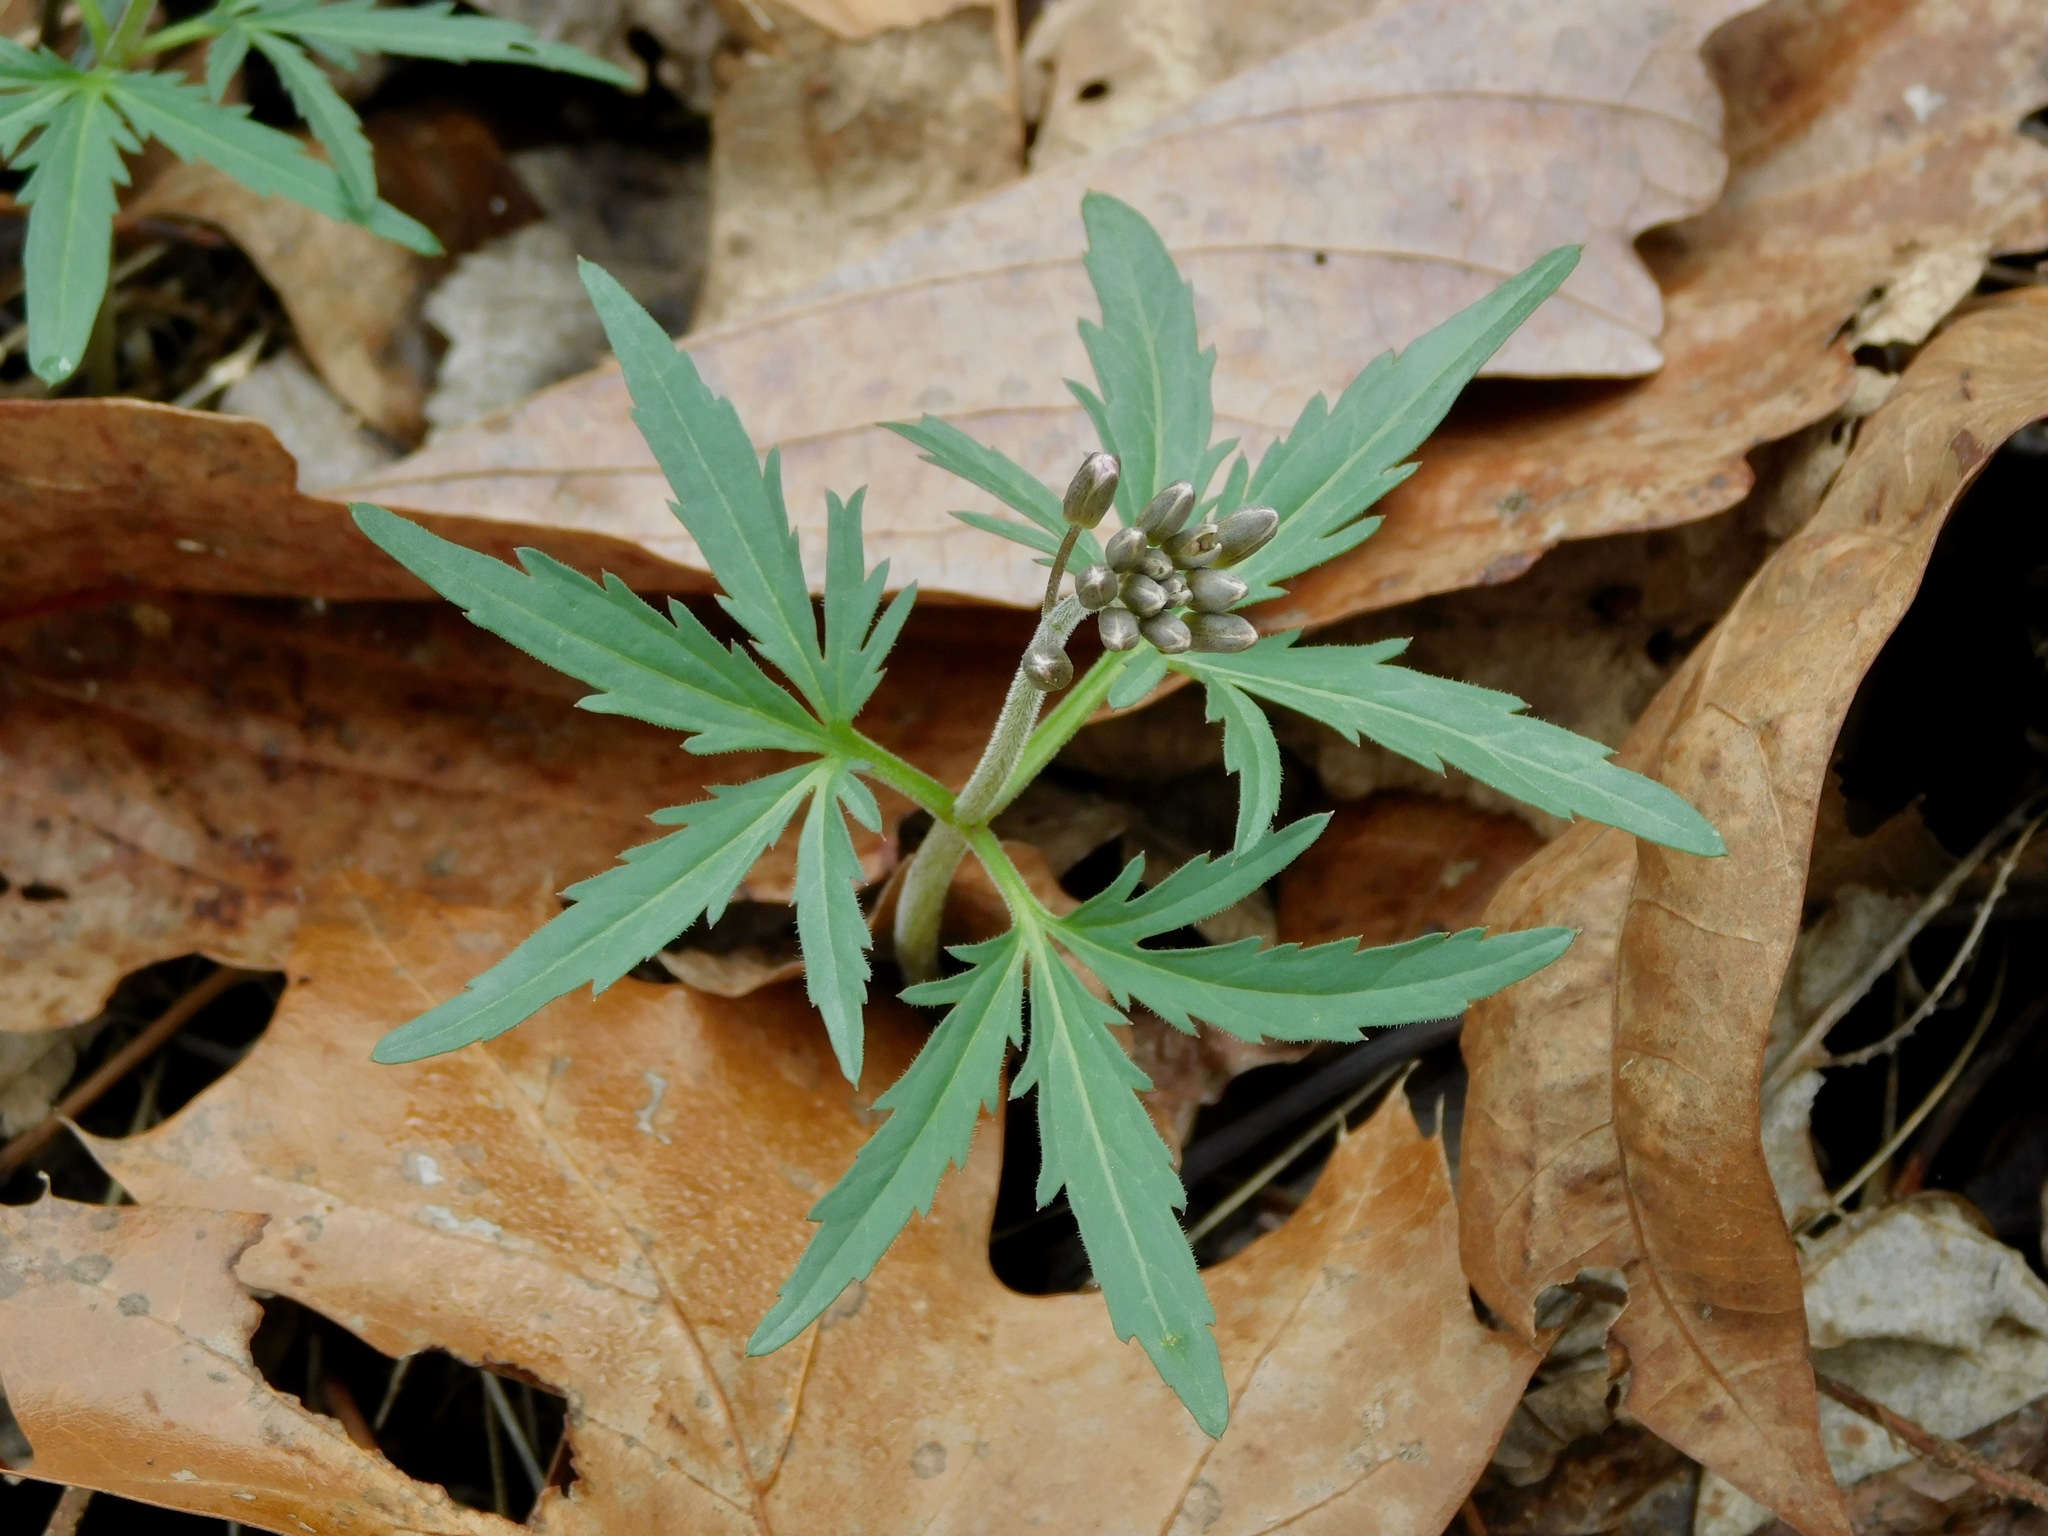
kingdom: Plantae
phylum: Tracheophyta
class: Magnoliopsida
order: Brassicales
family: Brassicaceae
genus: Cardamine
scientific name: Cardamine concatenata
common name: Cut-leaf toothcup
